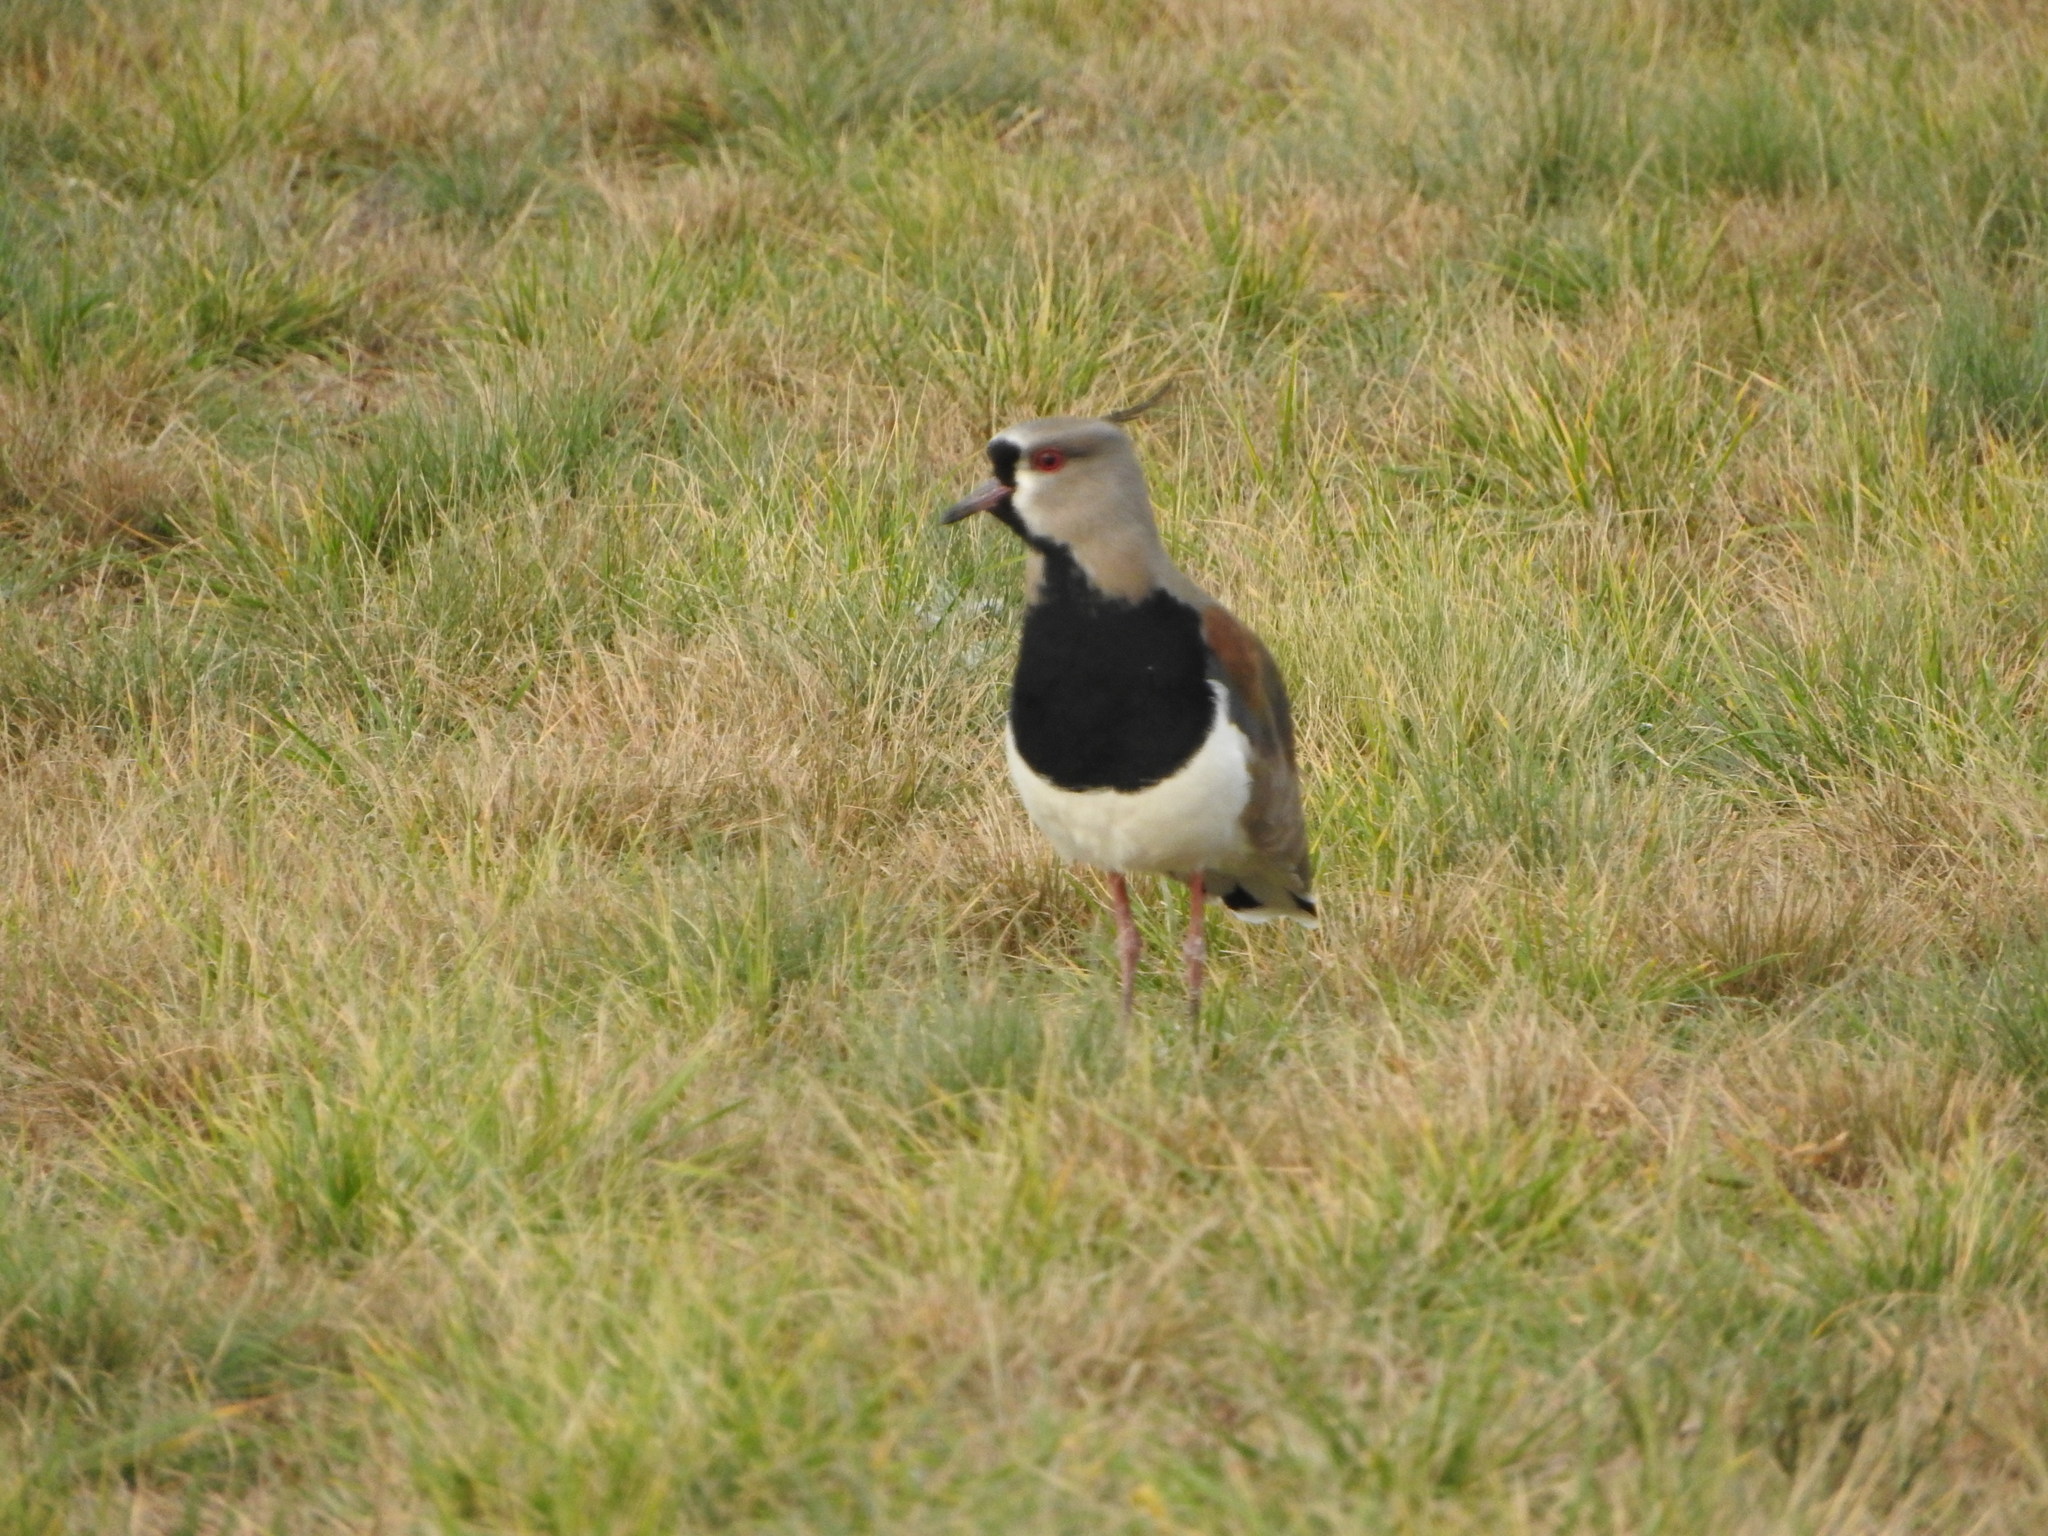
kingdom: Animalia
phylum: Chordata
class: Aves
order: Charadriiformes
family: Charadriidae
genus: Vanellus
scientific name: Vanellus chilensis
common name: Southern lapwing
